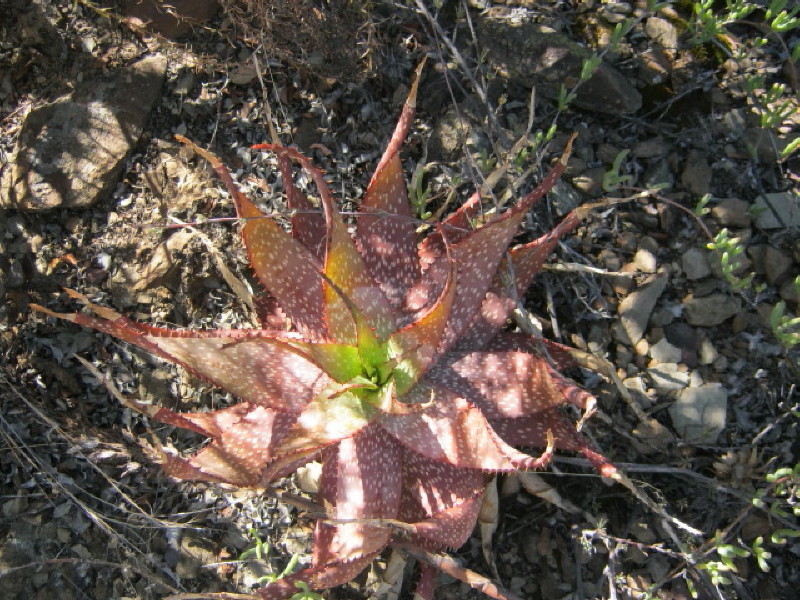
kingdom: Plantae
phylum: Tracheophyta
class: Liliopsida
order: Asparagales
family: Asphodelaceae
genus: Aloe
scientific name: Aloe microstigma
